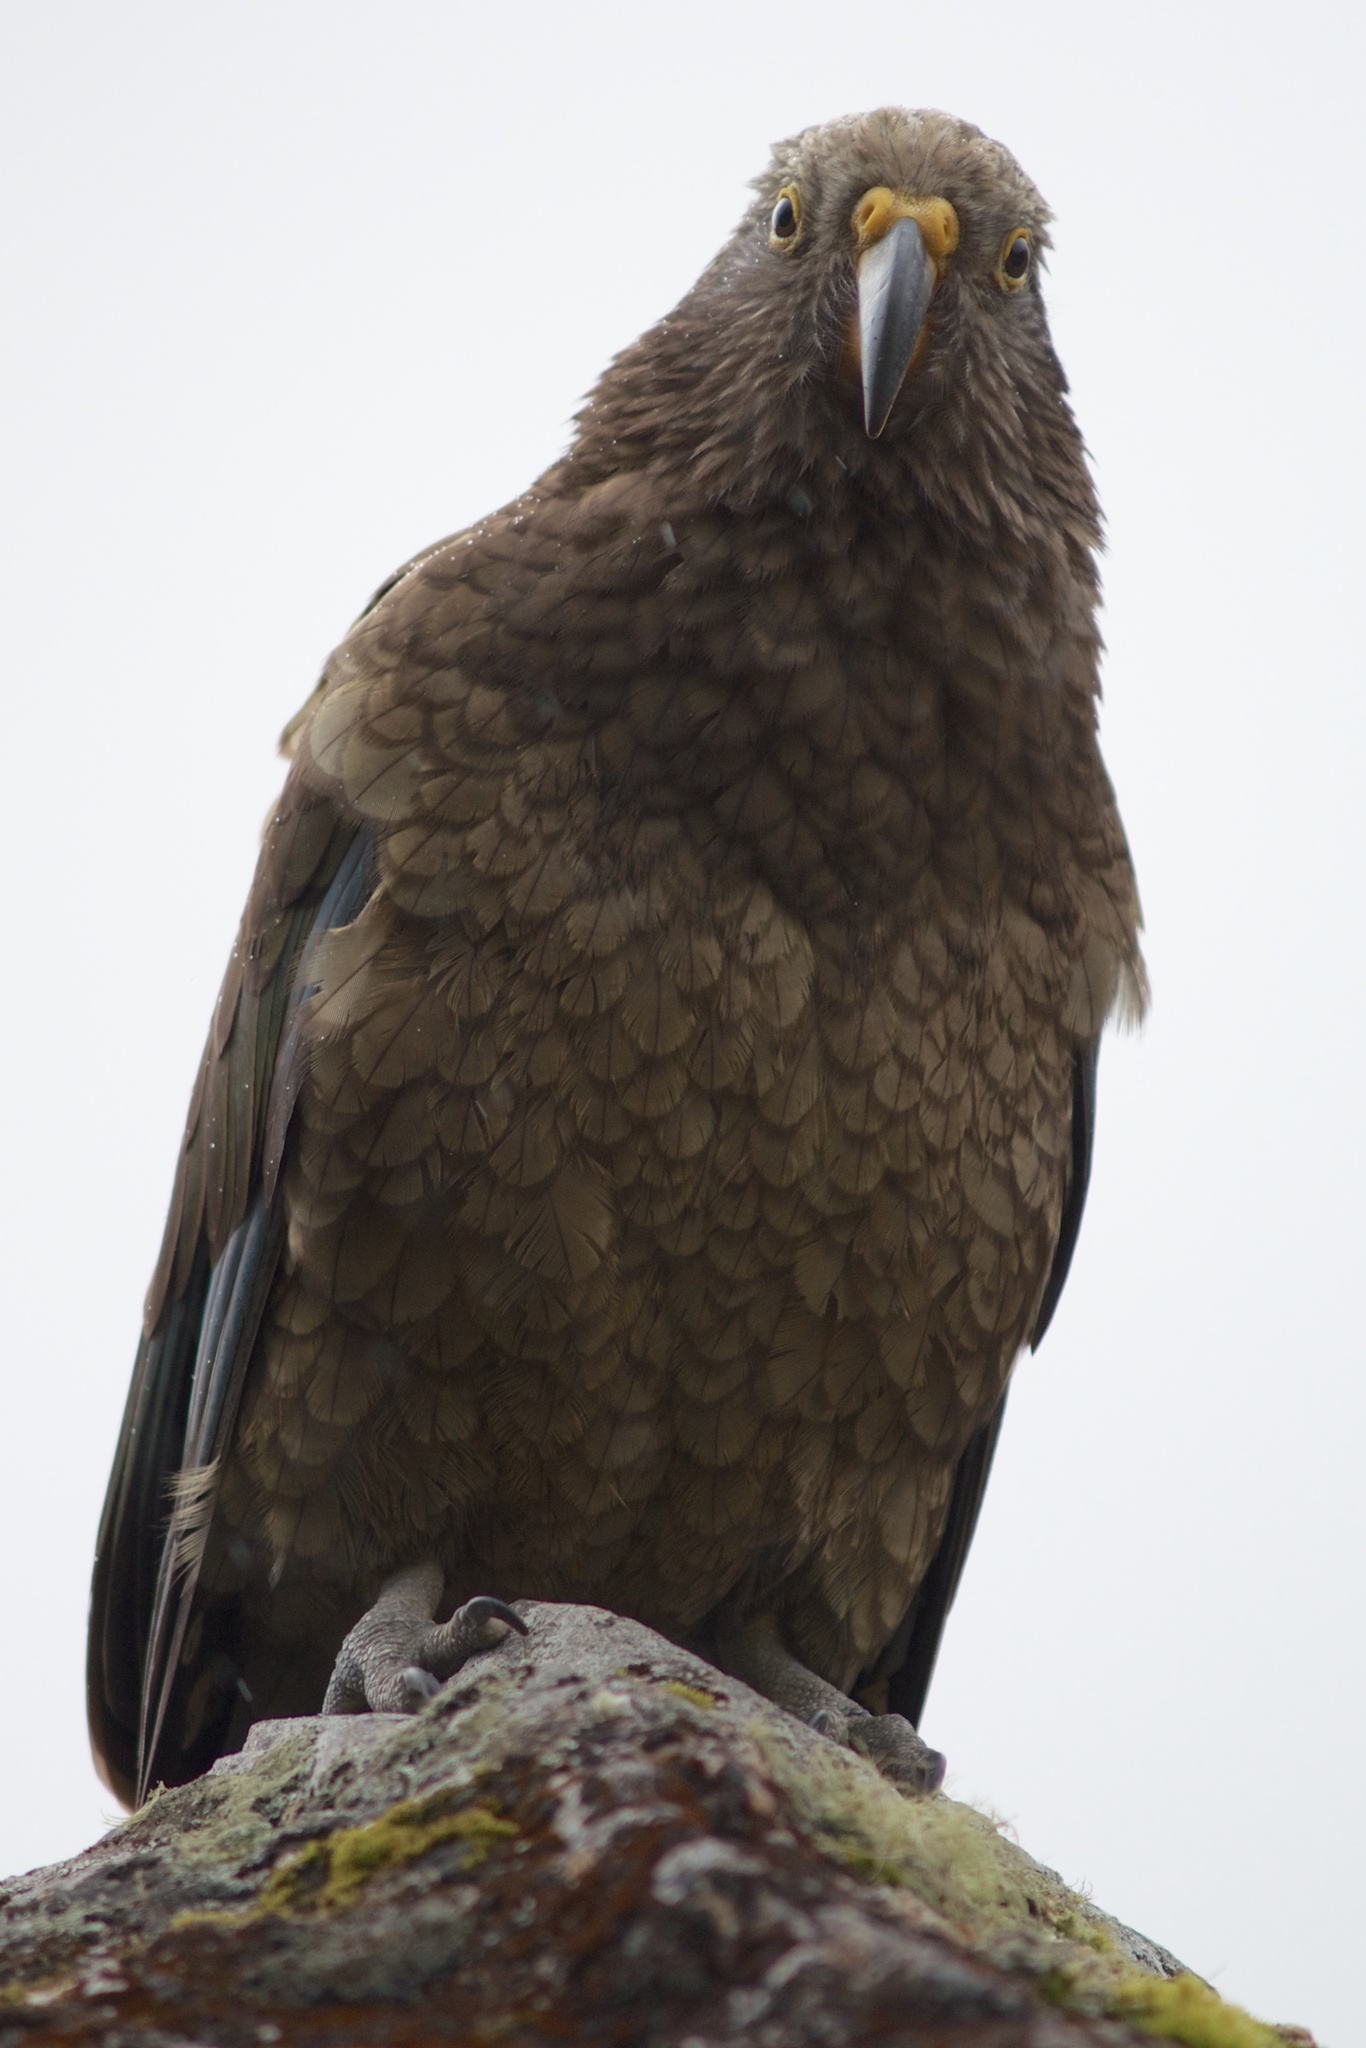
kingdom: Animalia
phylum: Chordata
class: Aves
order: Psittaciformes
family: Psittacidae
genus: Nestor
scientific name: Nestor notabilis
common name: Kea
